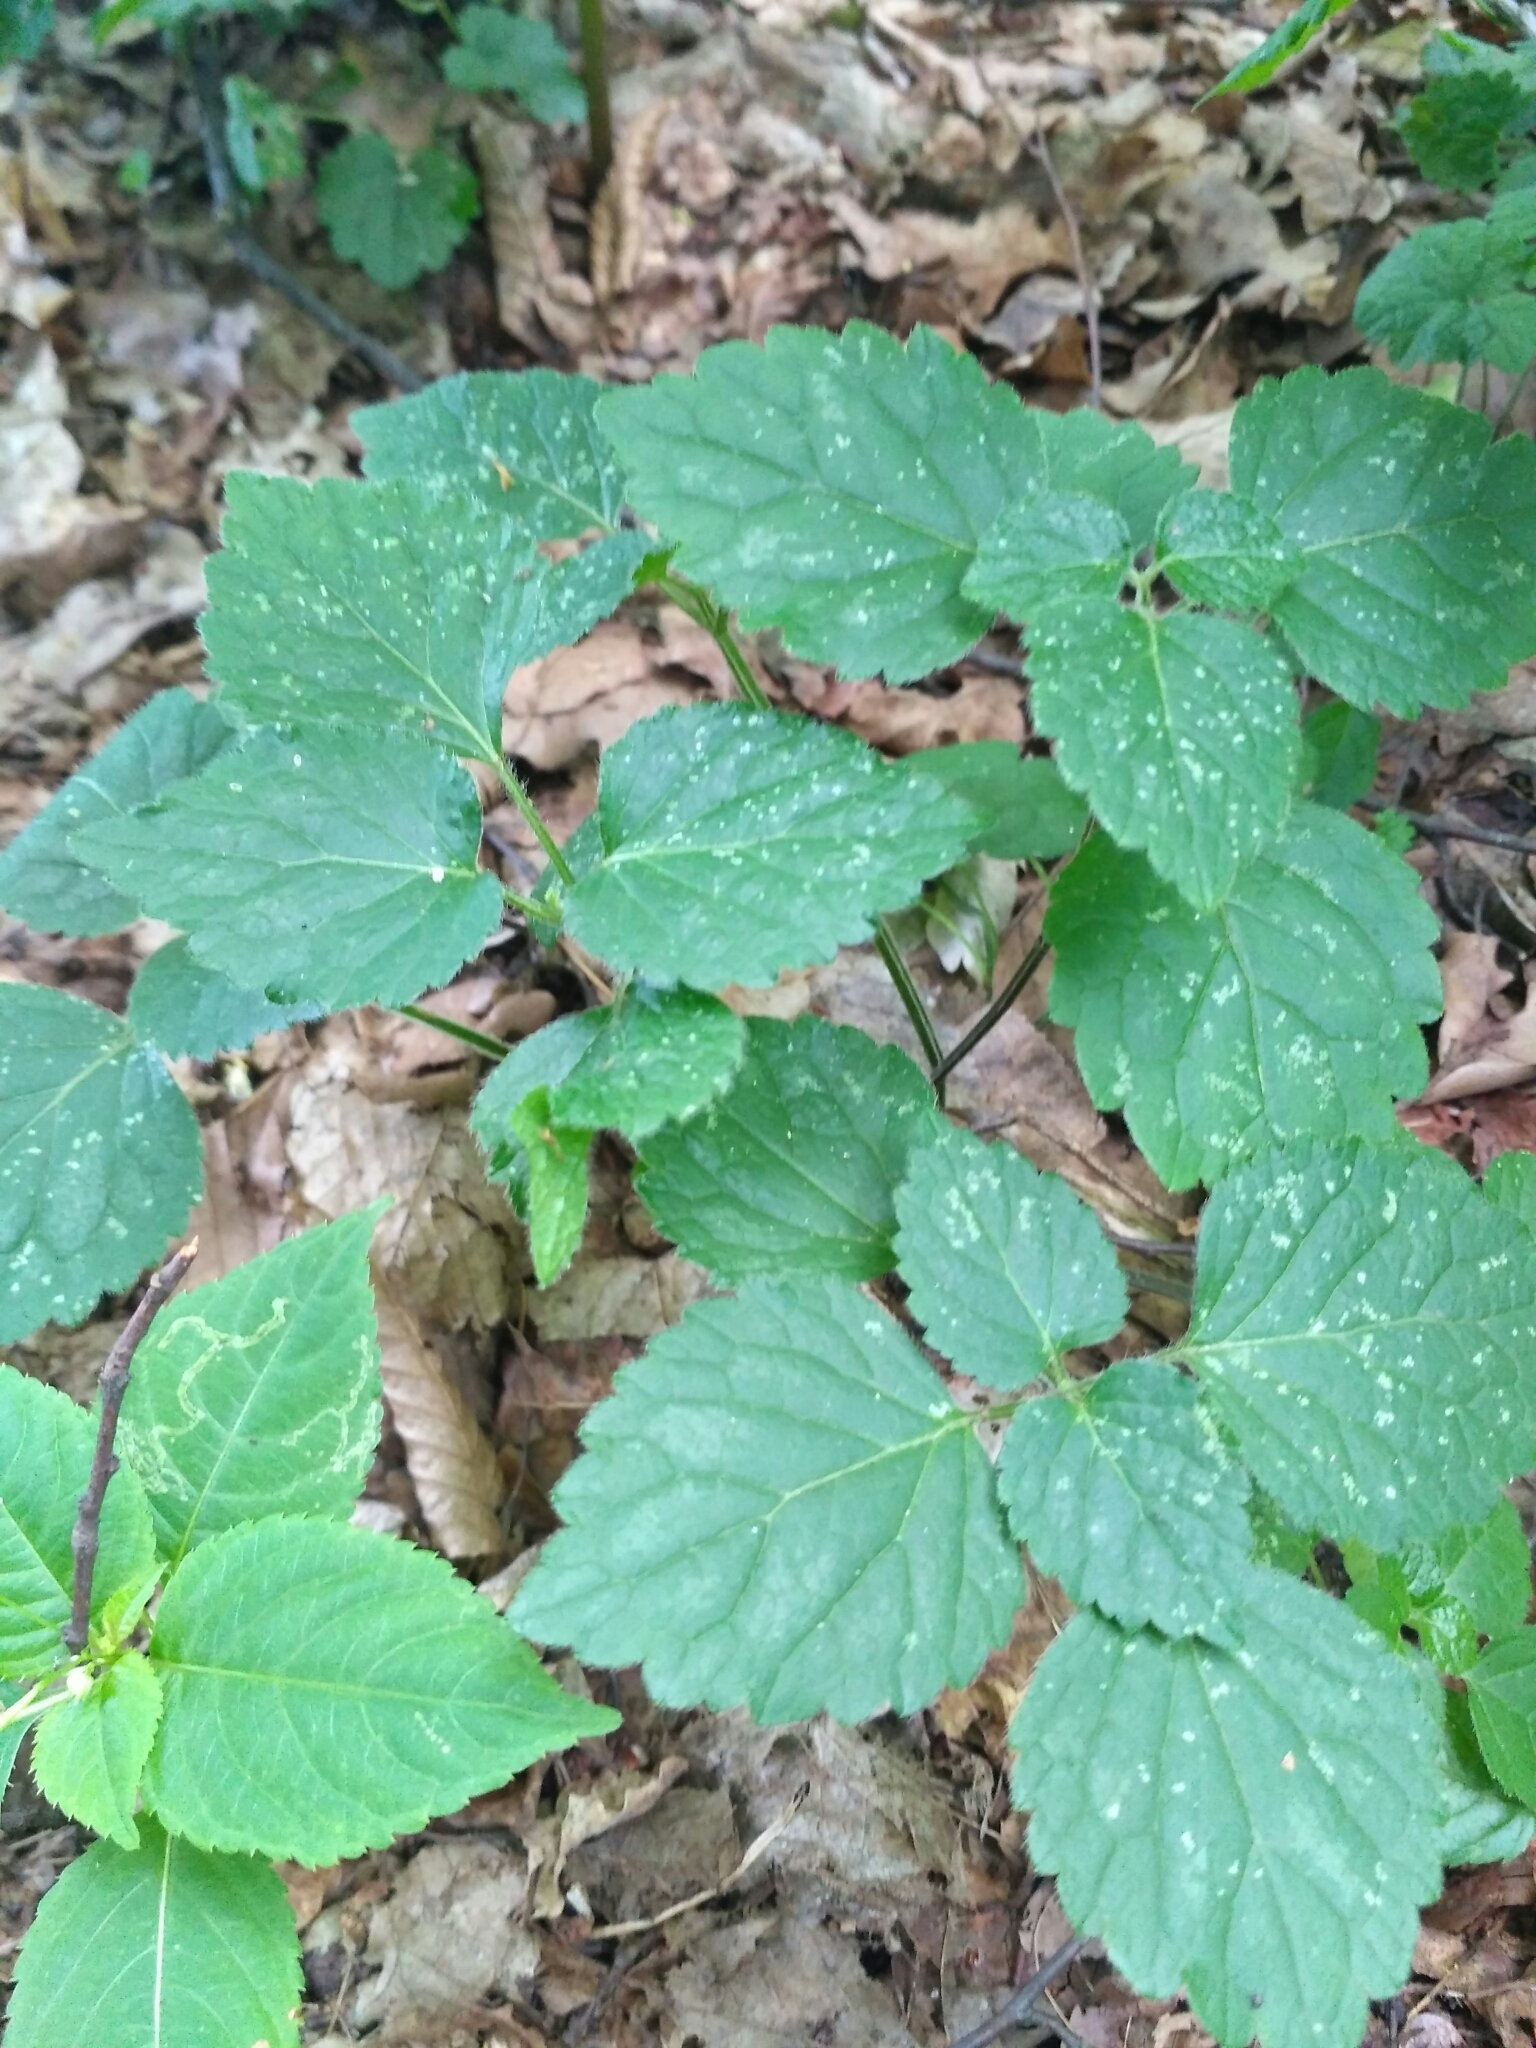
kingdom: Plantae
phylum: Tracheophyta
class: Magnoliopsida
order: Lamiales
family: Lamiaceae
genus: Lamium
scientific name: Lamium galeobdolon
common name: Yellow archangel
